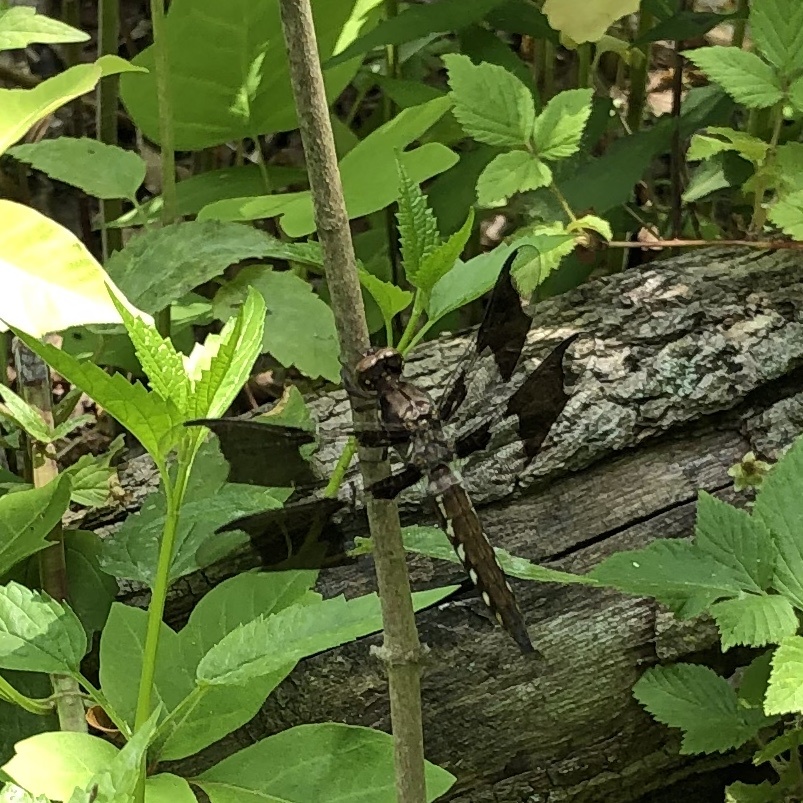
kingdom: Animalia
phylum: Arthropoda
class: Insecta
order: Odonata
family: Libellulidae
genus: Plathemis
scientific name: Plathemis lydia
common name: Common whitetail
